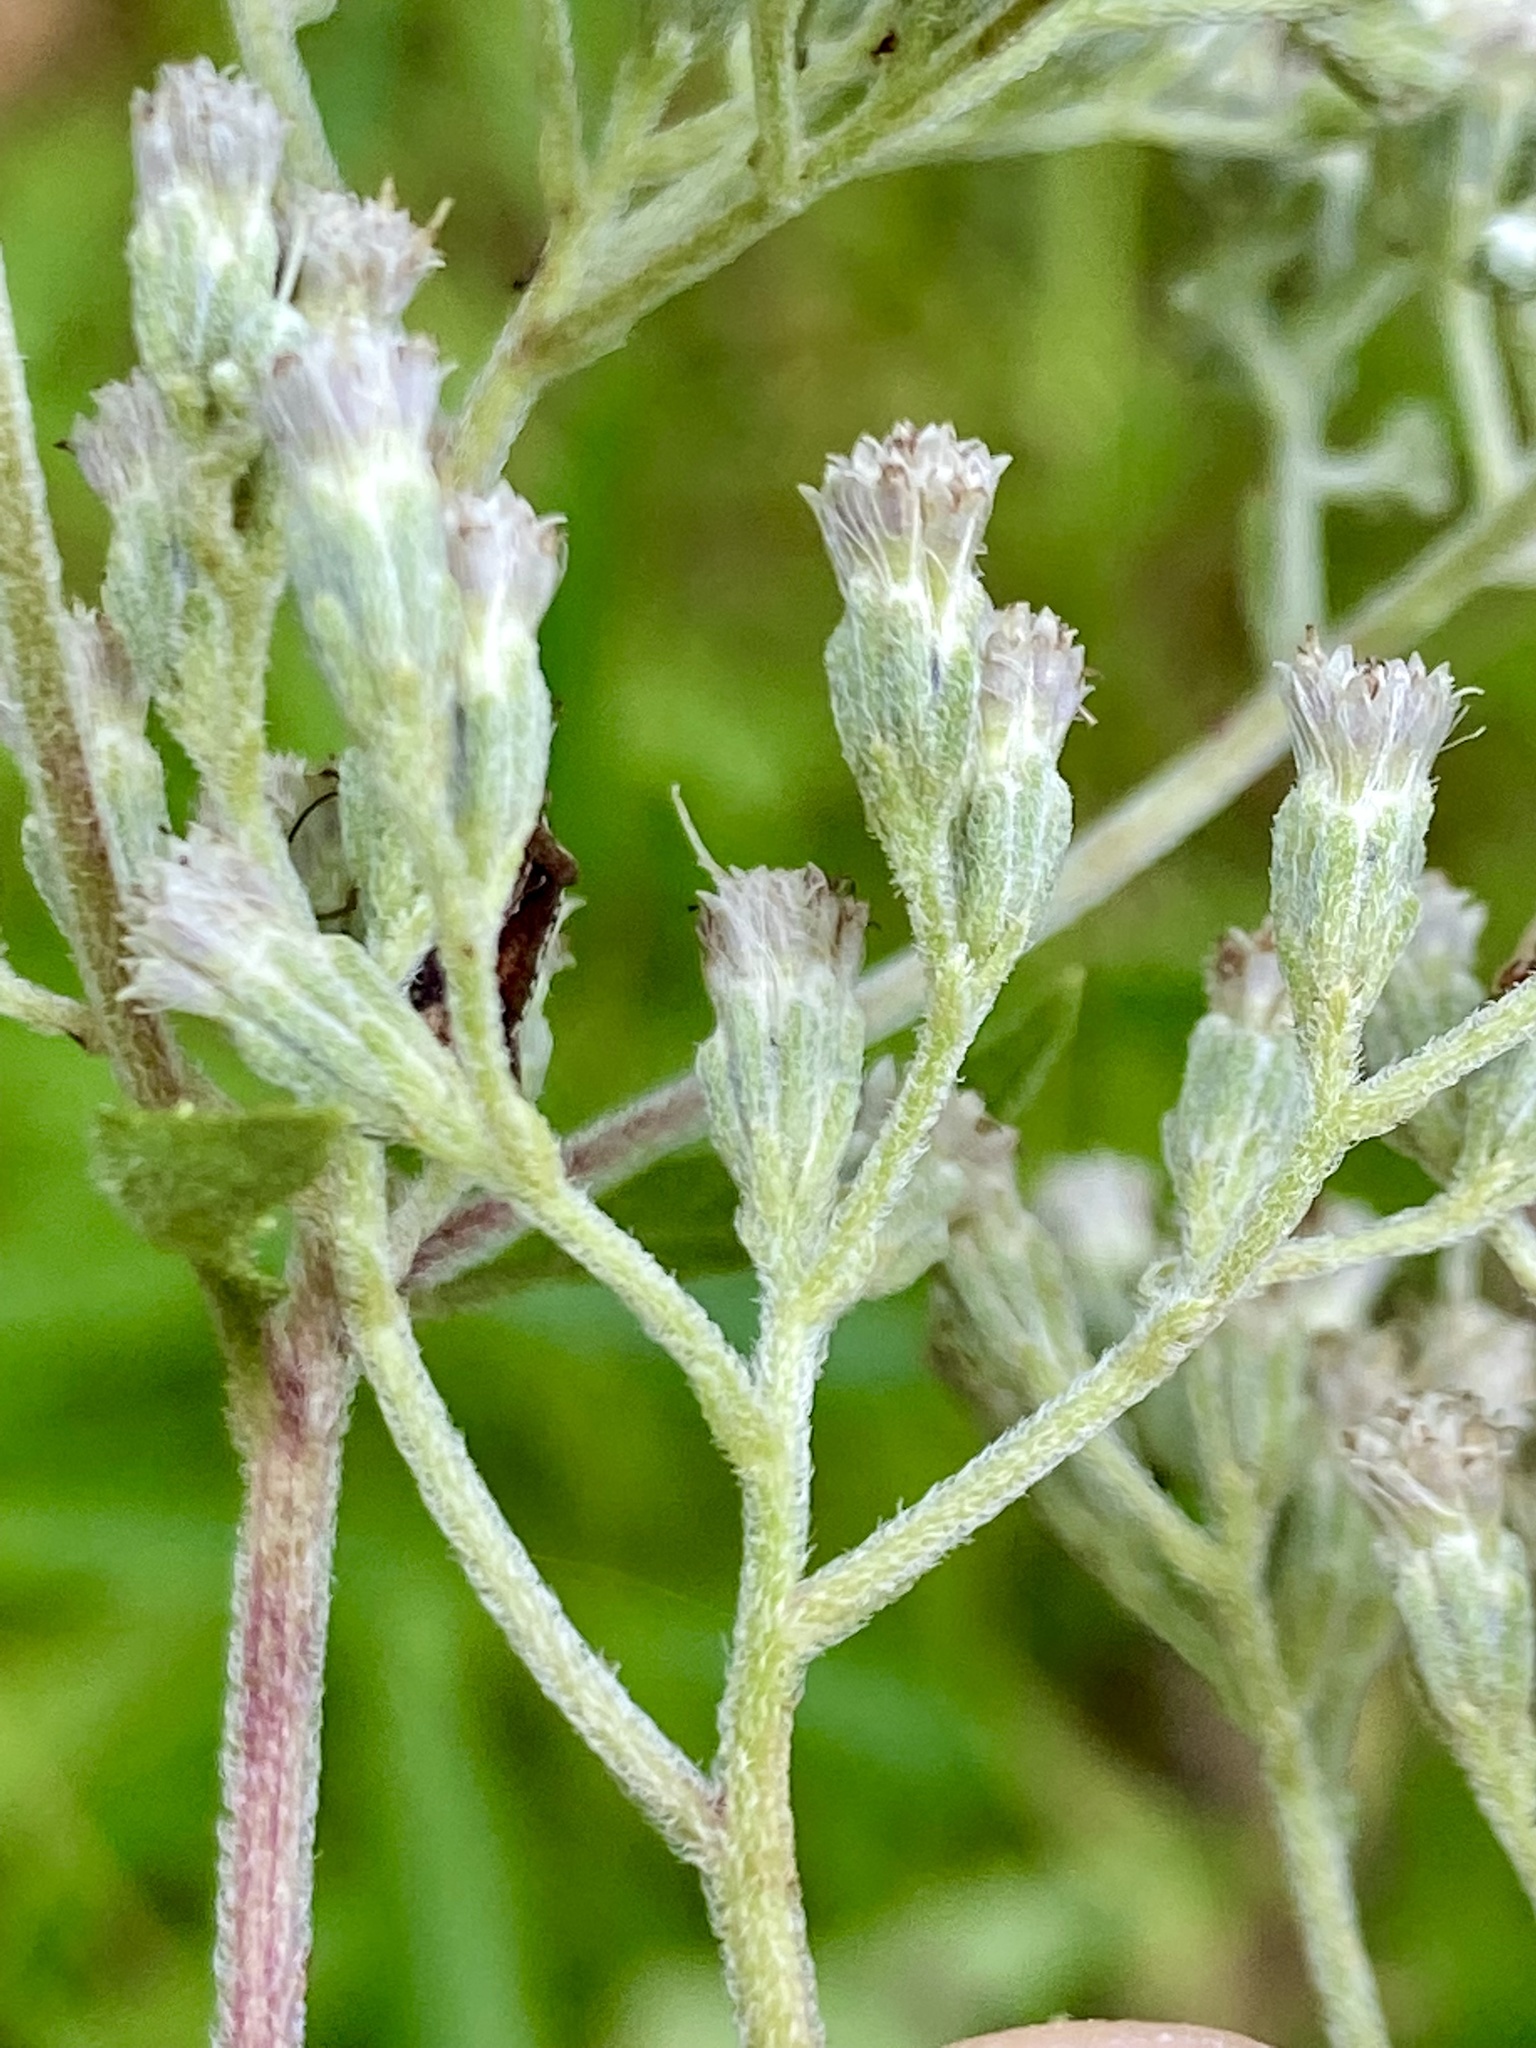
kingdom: Plantae
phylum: Tracheophyta
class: Magnoliopsida
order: Asterales
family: Asteraceae
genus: Eupatorium
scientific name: Eupatorium serotinum
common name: Late boneset
